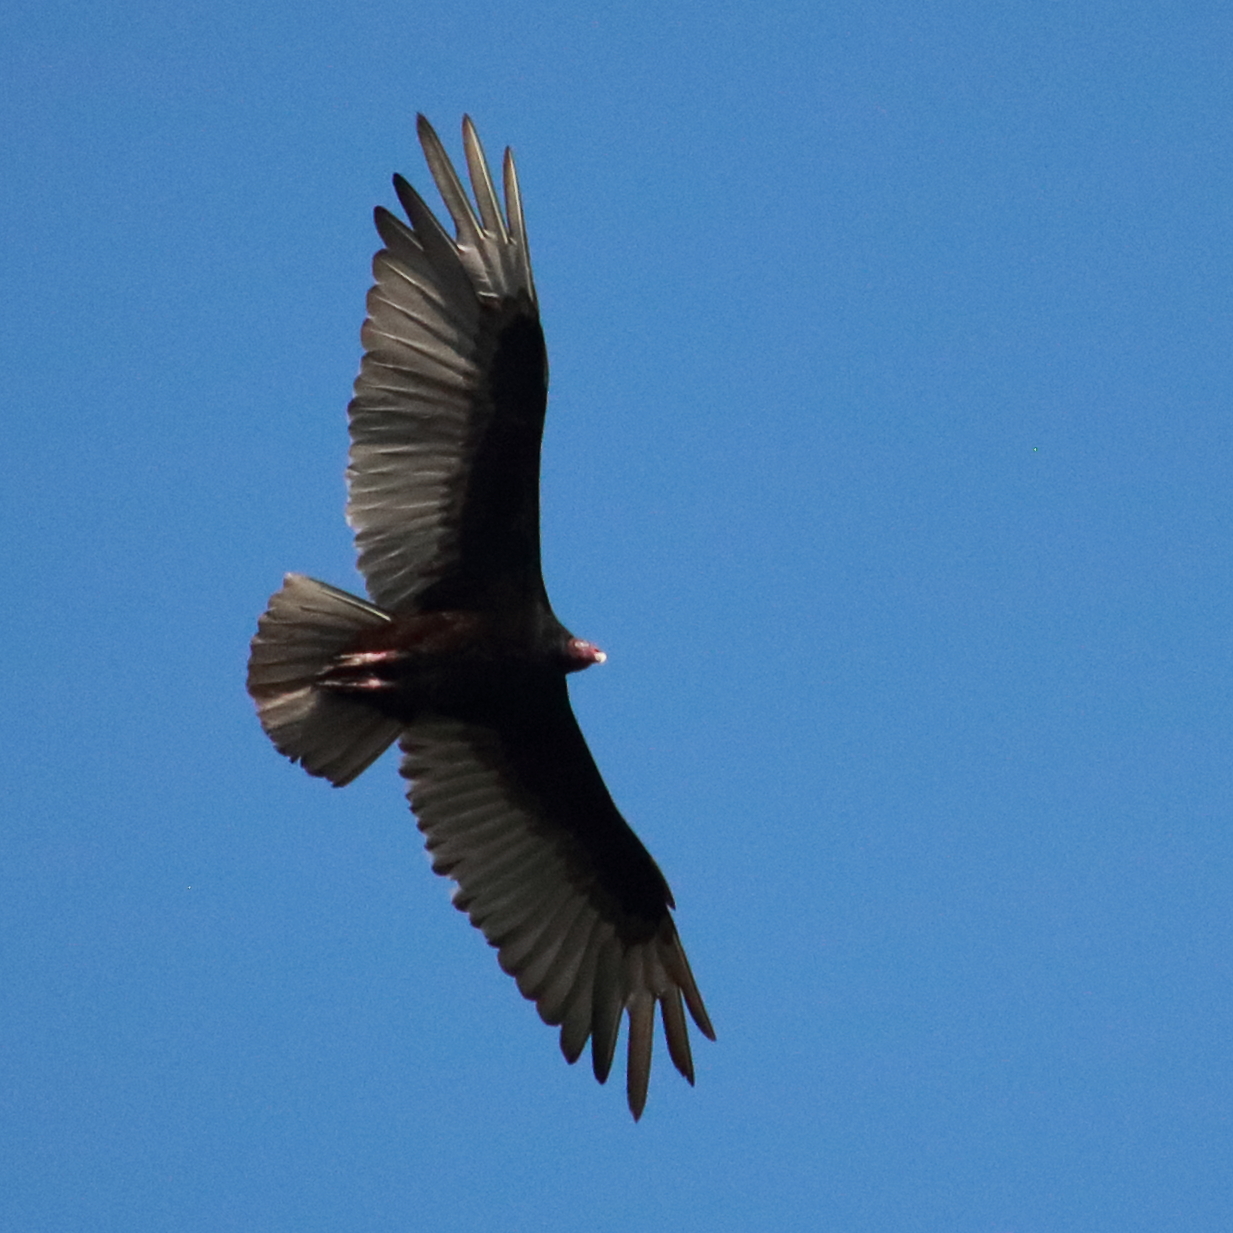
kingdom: Animalia
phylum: Chordata
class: Aves
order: Accipitriformes
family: Cathartidae
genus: Cathartes
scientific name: Cathartes aura
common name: Turkey vulture
